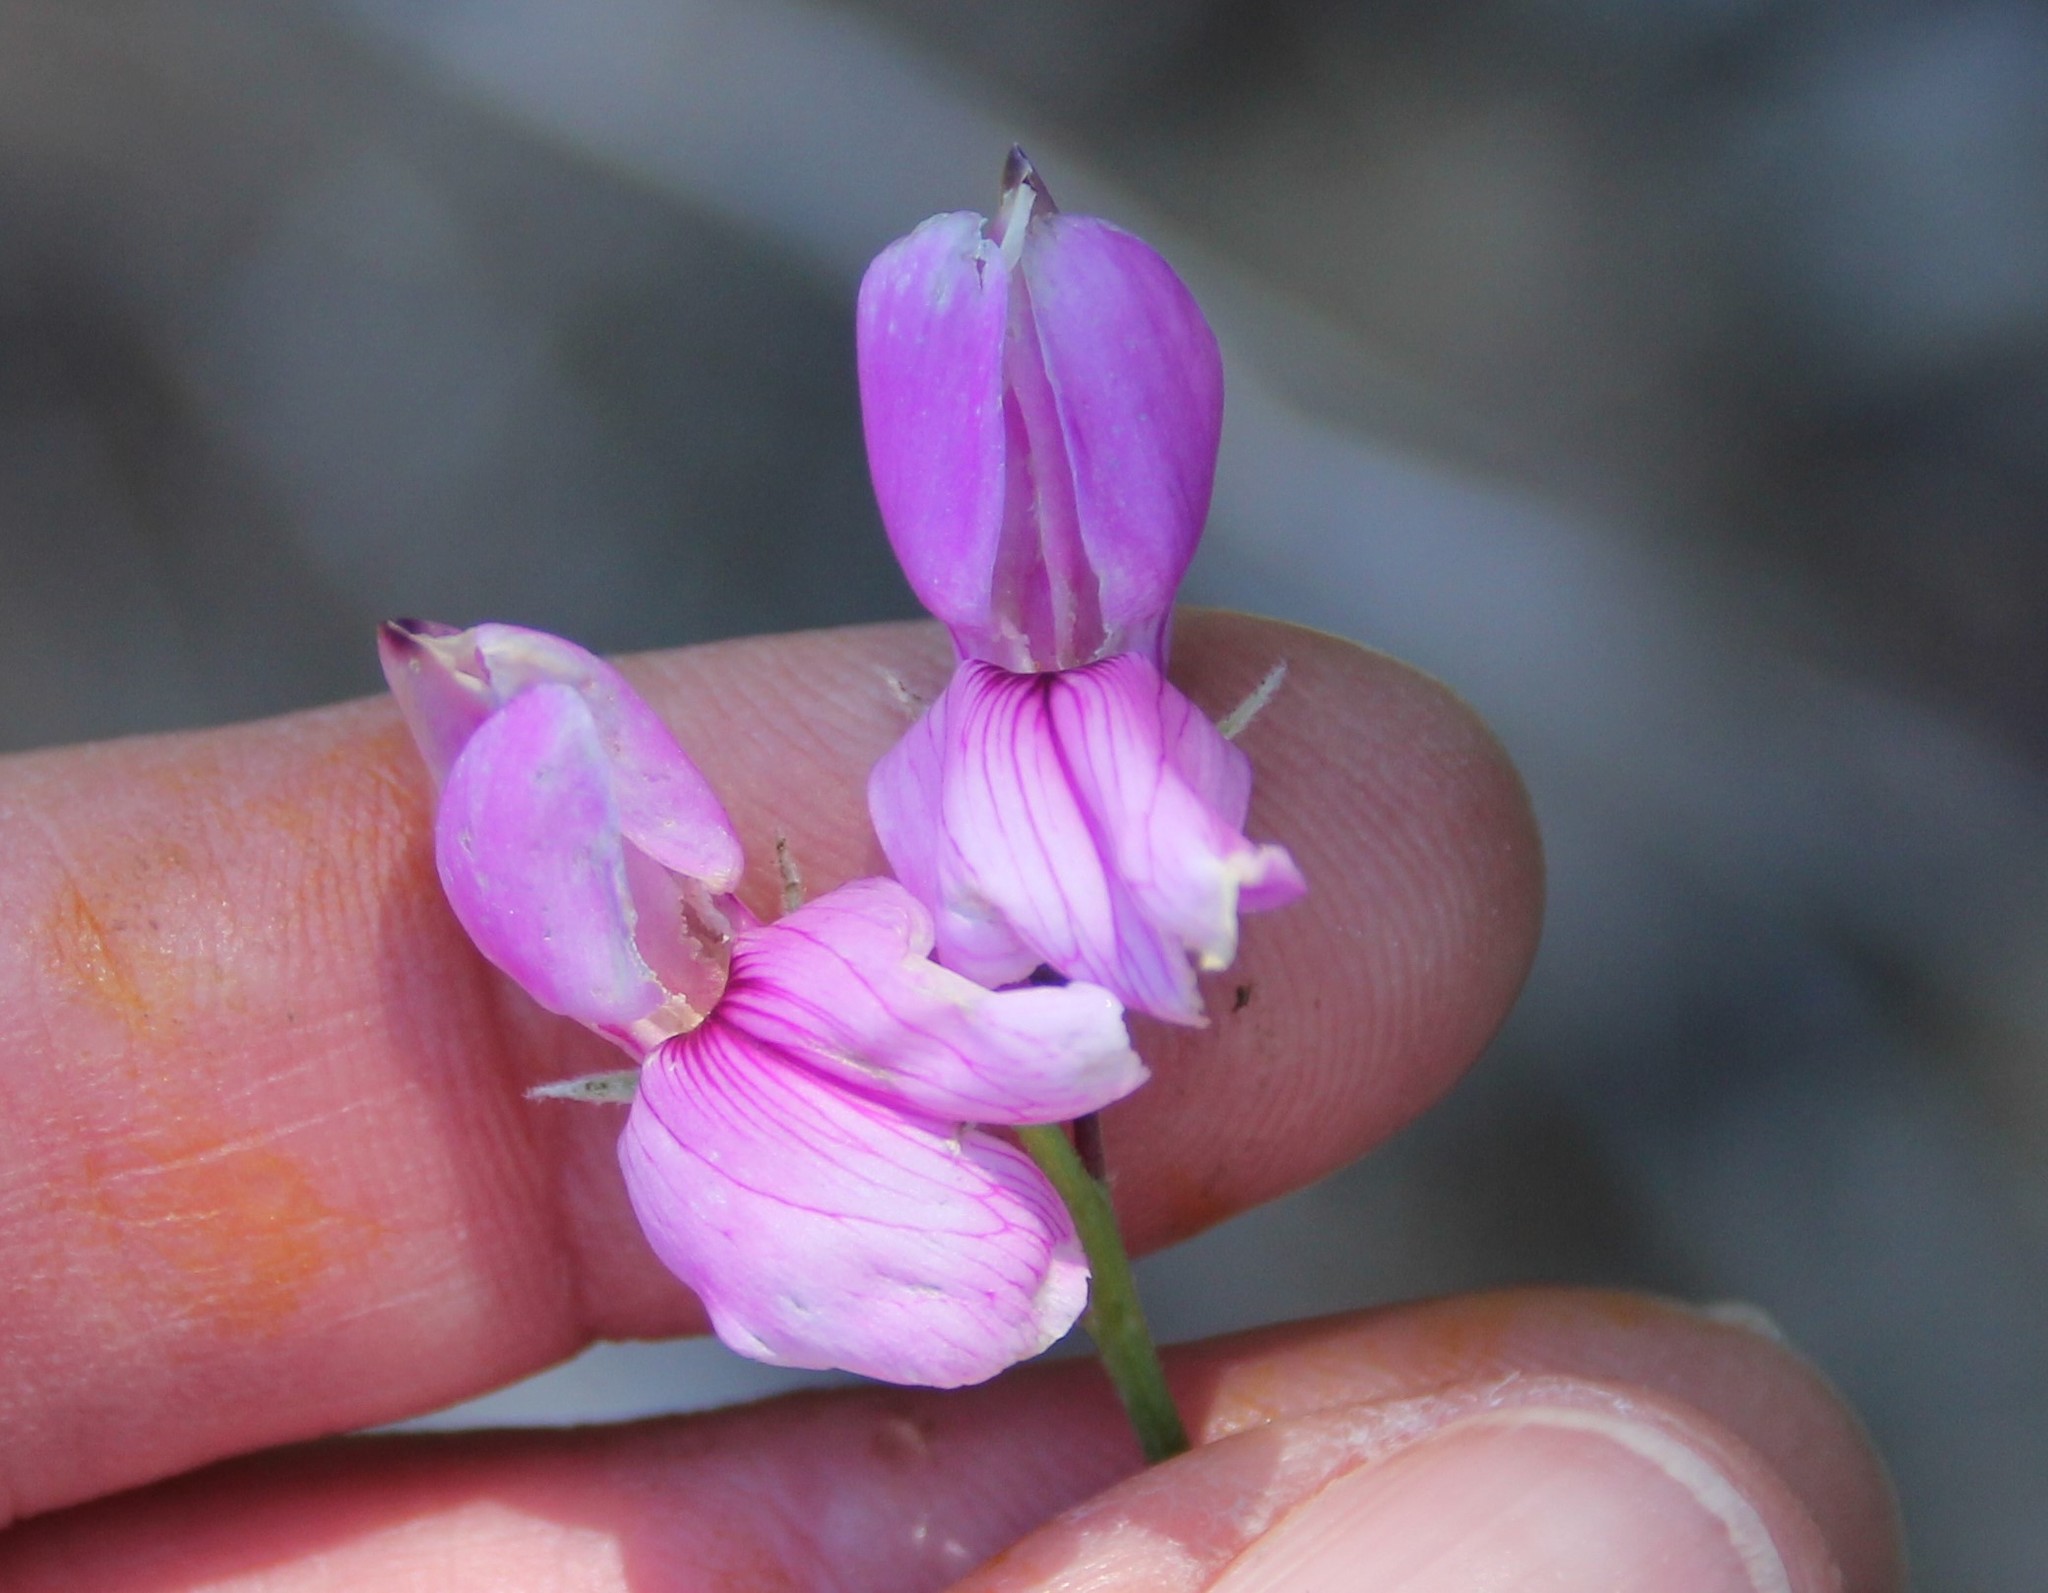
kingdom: Plantae
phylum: Tracheophyta
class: Magnoliopsida
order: Fabales
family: Fabaceae
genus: Lathyrus
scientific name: Lathyrus vestitus
